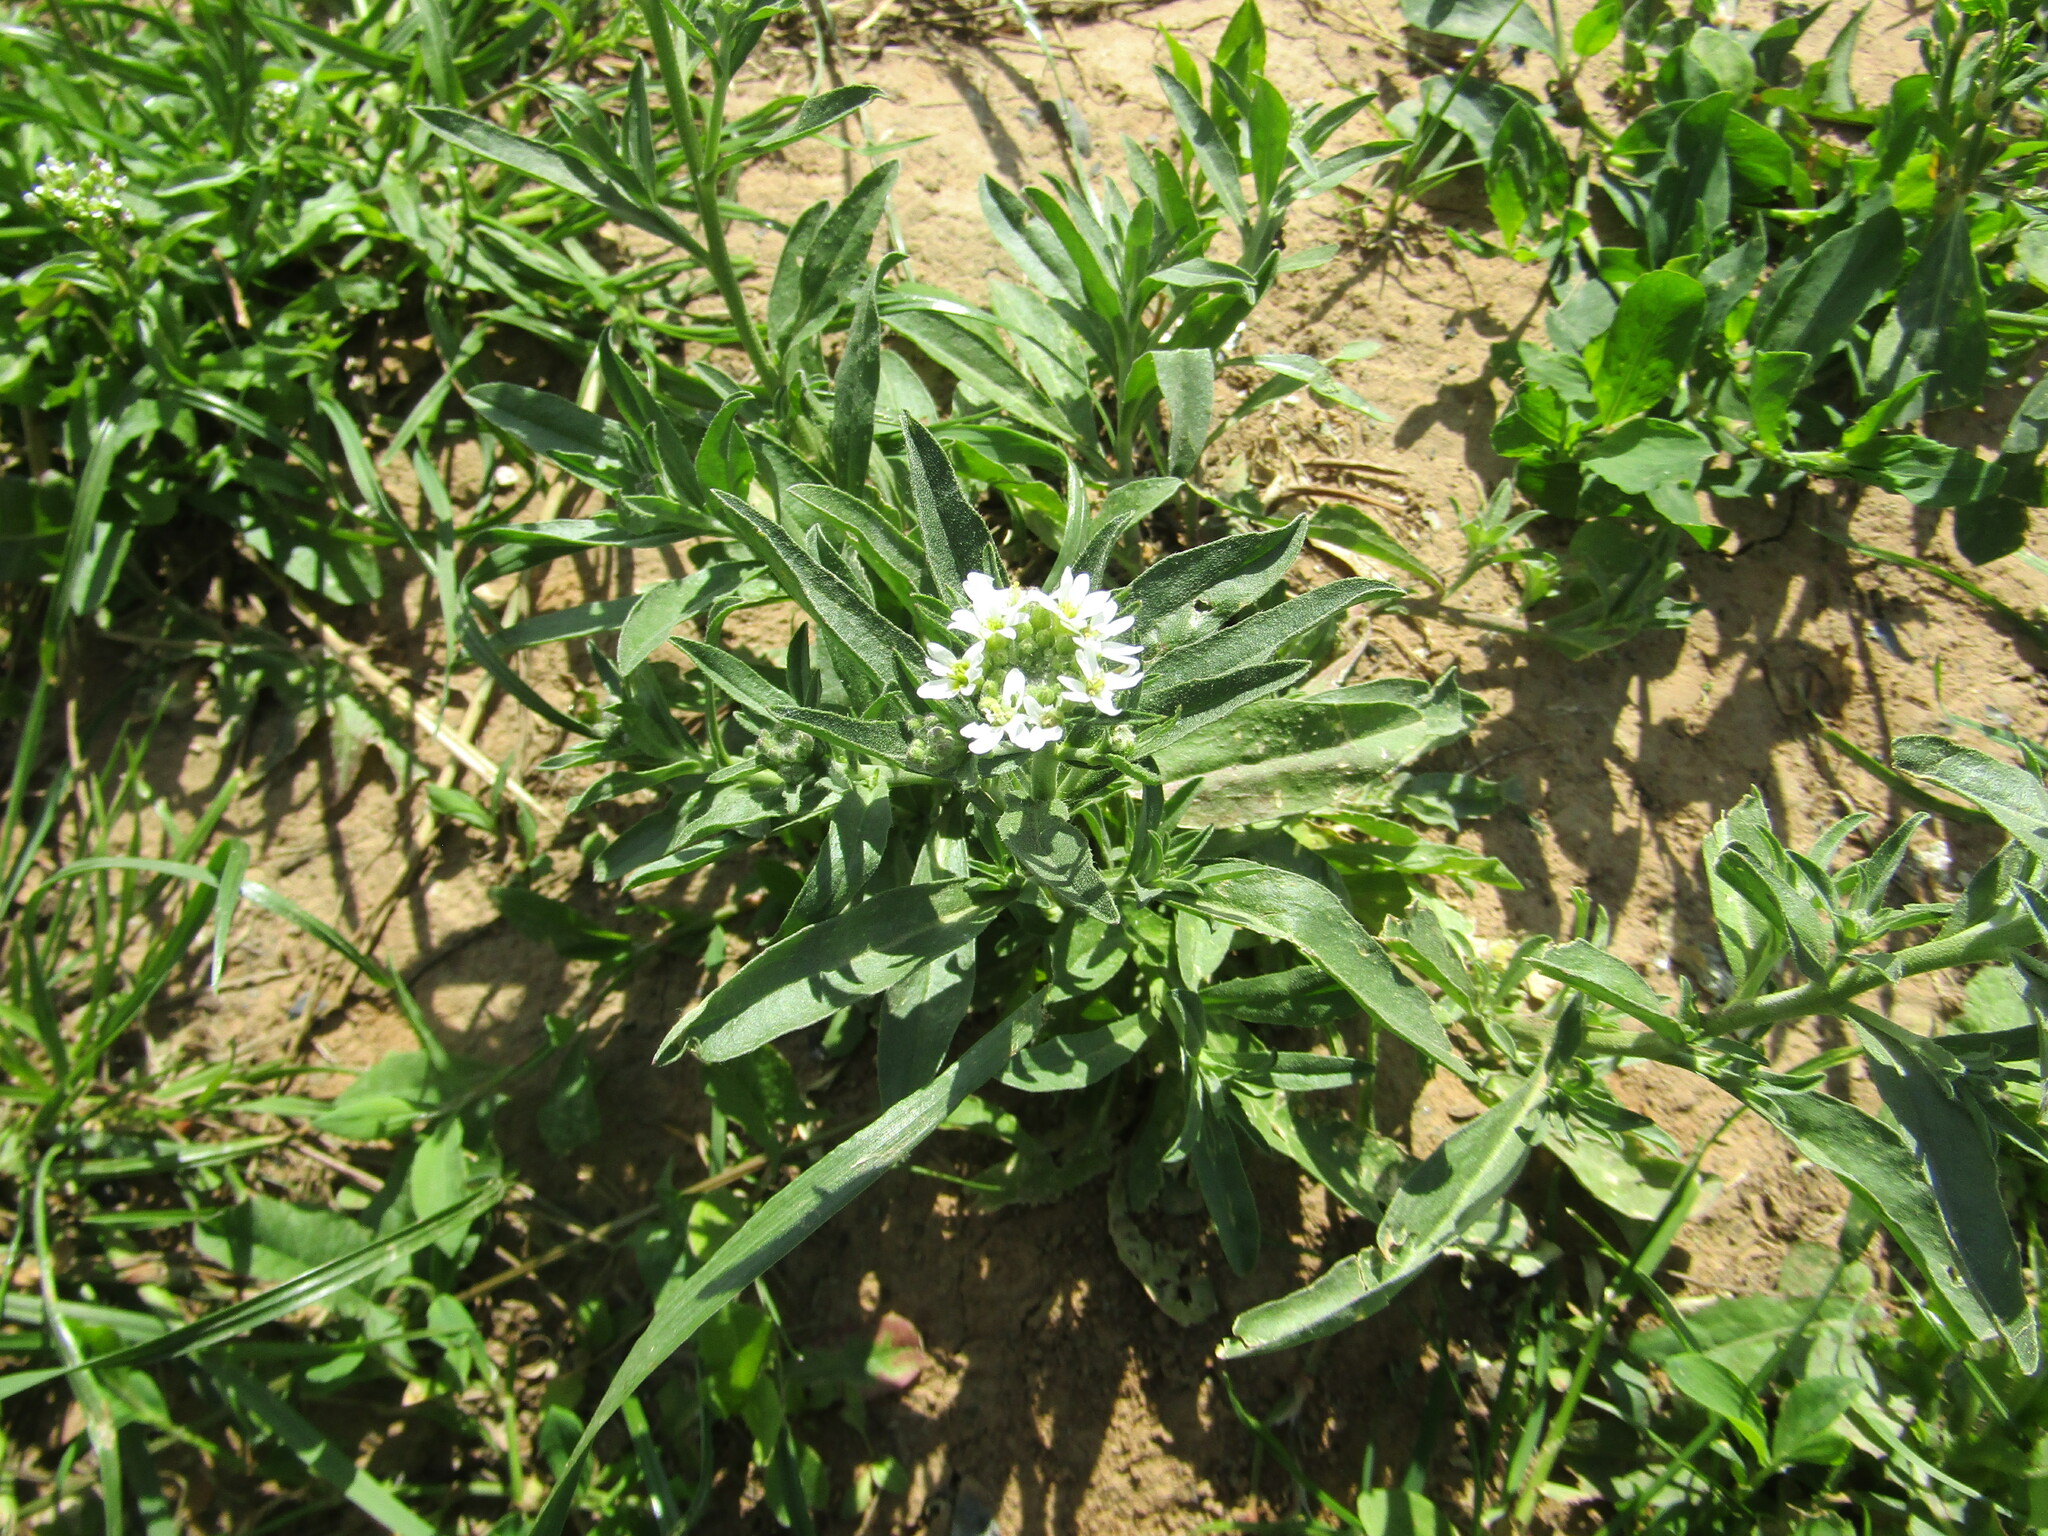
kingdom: Plantae
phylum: Tracheophyta
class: Magnoliopsida
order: Brassicales
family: Brassicaceae
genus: Berteroa
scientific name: Berteroa incana
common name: Hoary alison
